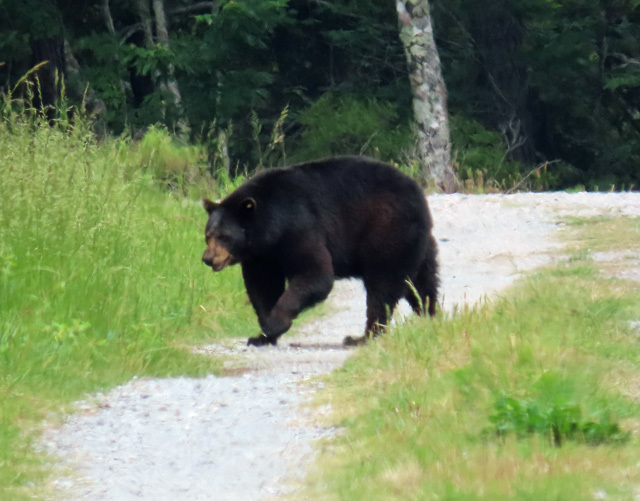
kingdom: Animalia
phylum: Chordata
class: Mammalia
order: Carnivora
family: Ursidae
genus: Ursus
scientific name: Ursus americanus
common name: American black bear
